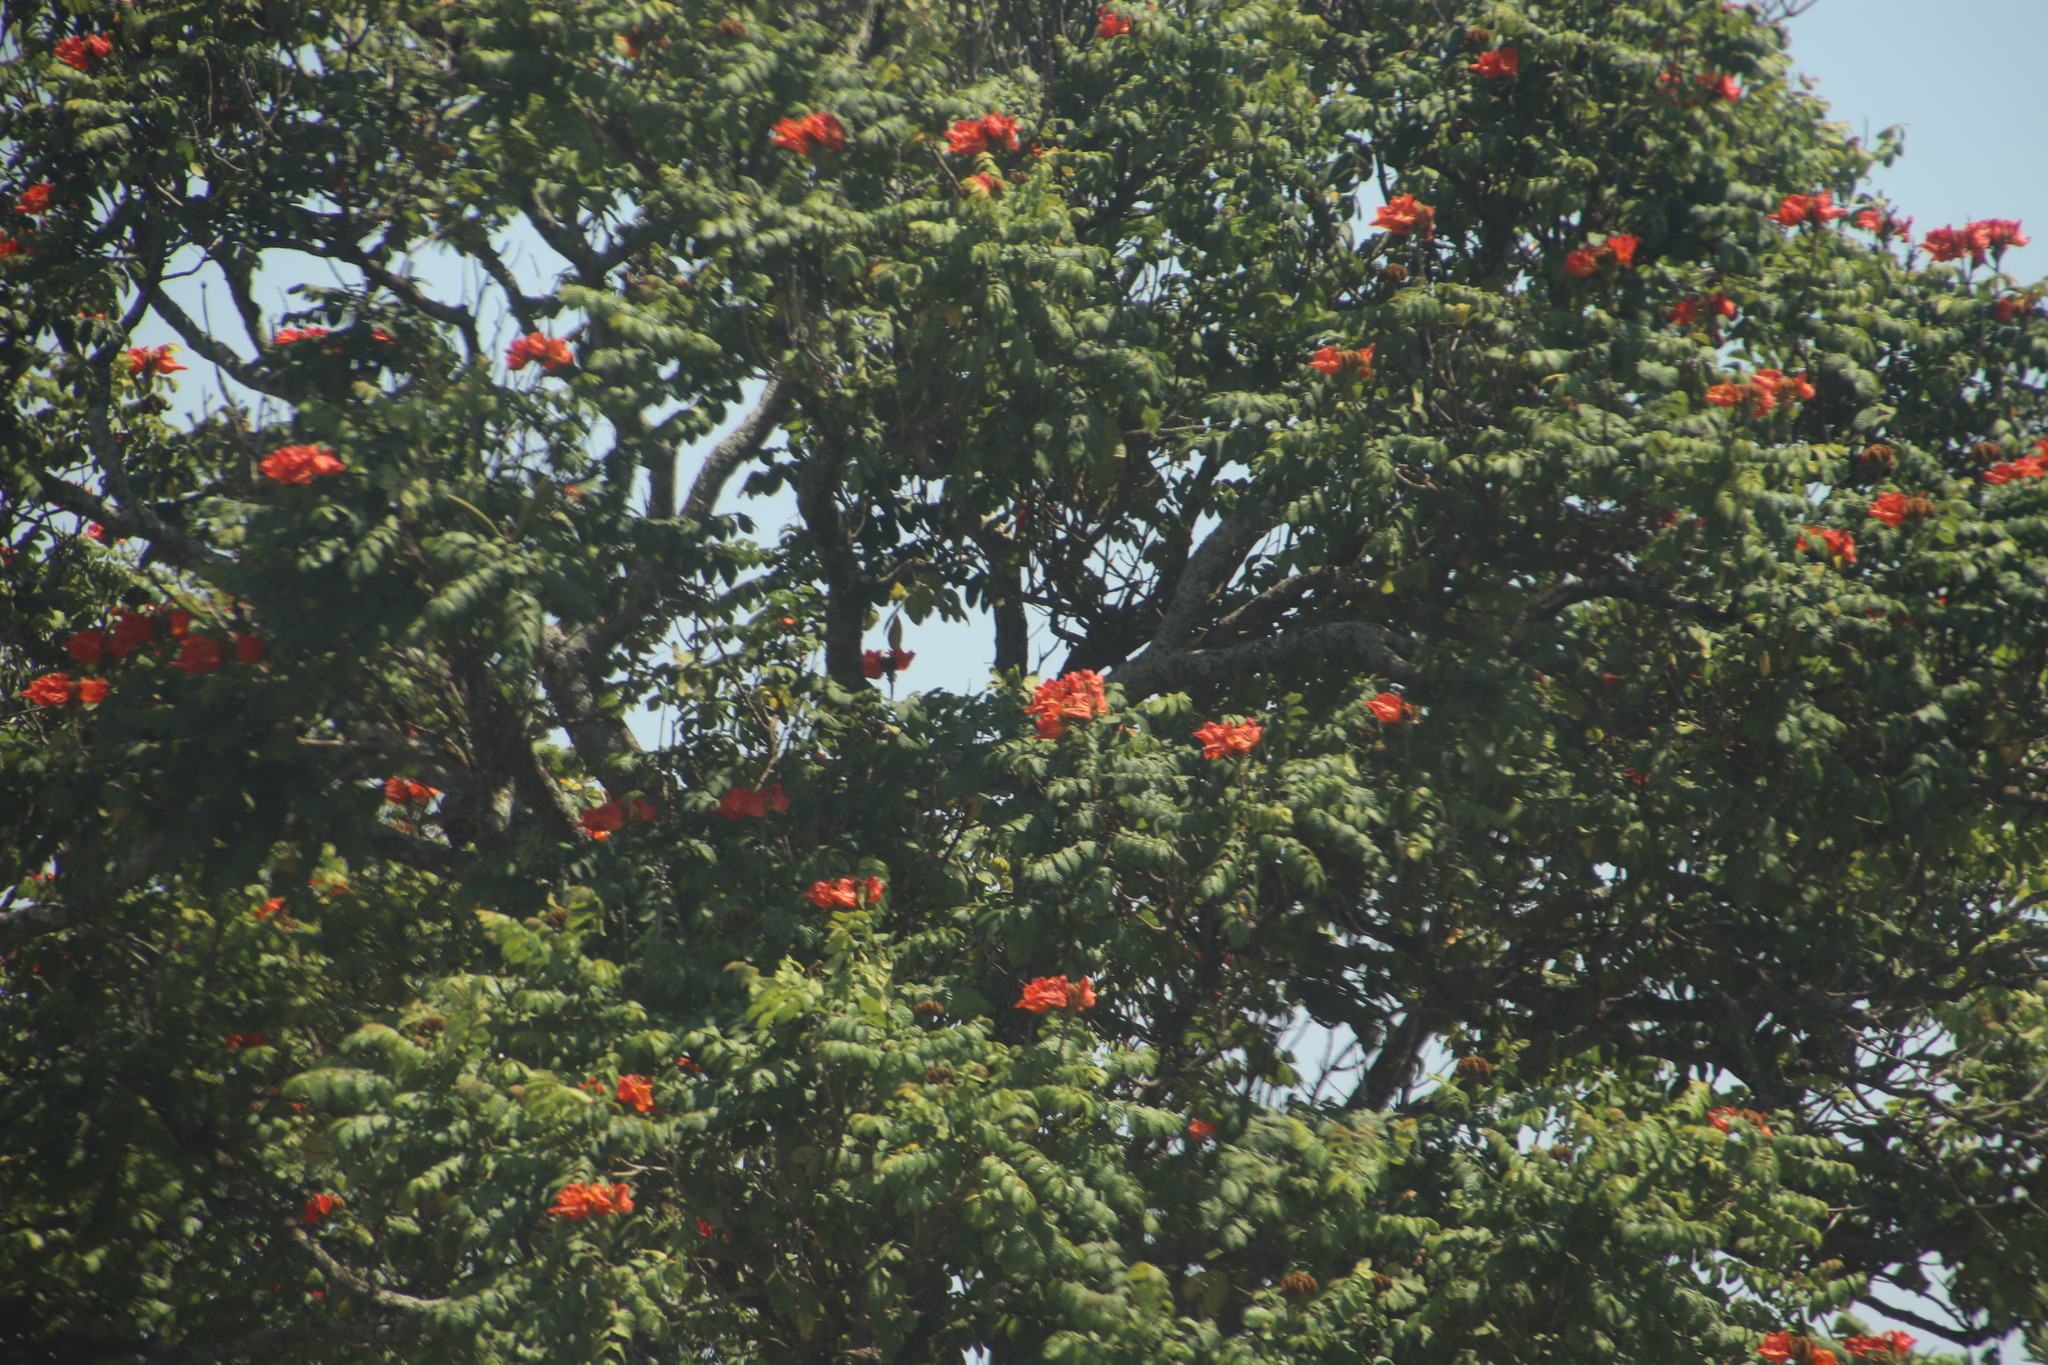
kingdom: Plantae
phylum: Tracheophyta
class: Magnoliopsida
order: Lamiales
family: Bignoniaceae
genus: Spathodea
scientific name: Spathodea campanulata
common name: African tuliptree
